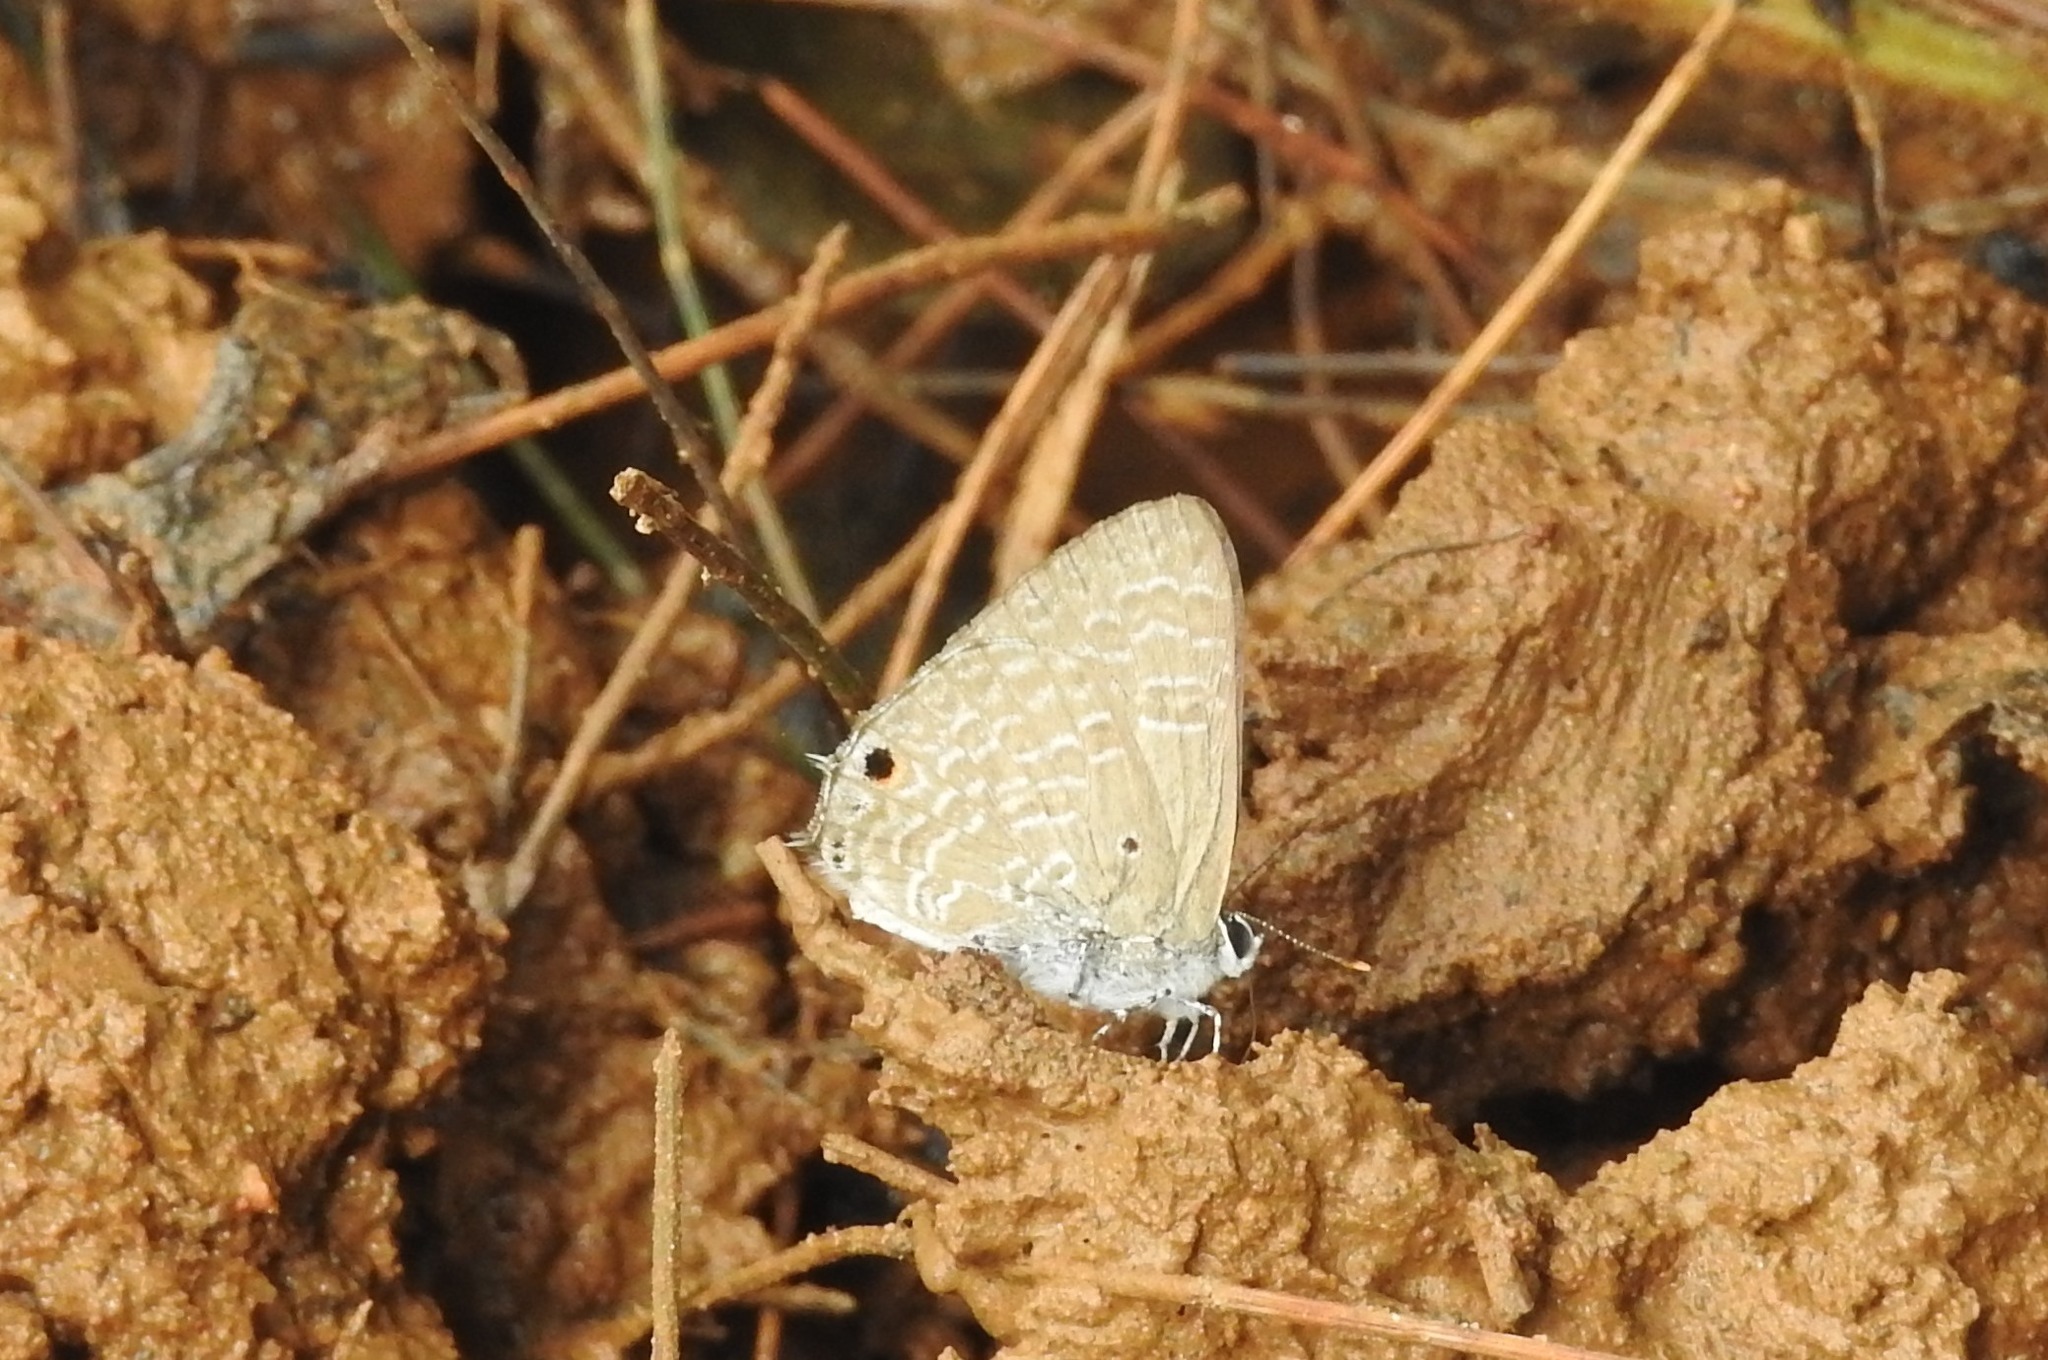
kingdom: Animalia
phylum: Arthropoda
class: Insecta
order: Lepidoptera
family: Lycaenidae
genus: Anthene
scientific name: Anthene lycaenina
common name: Pointed ciliate blue
